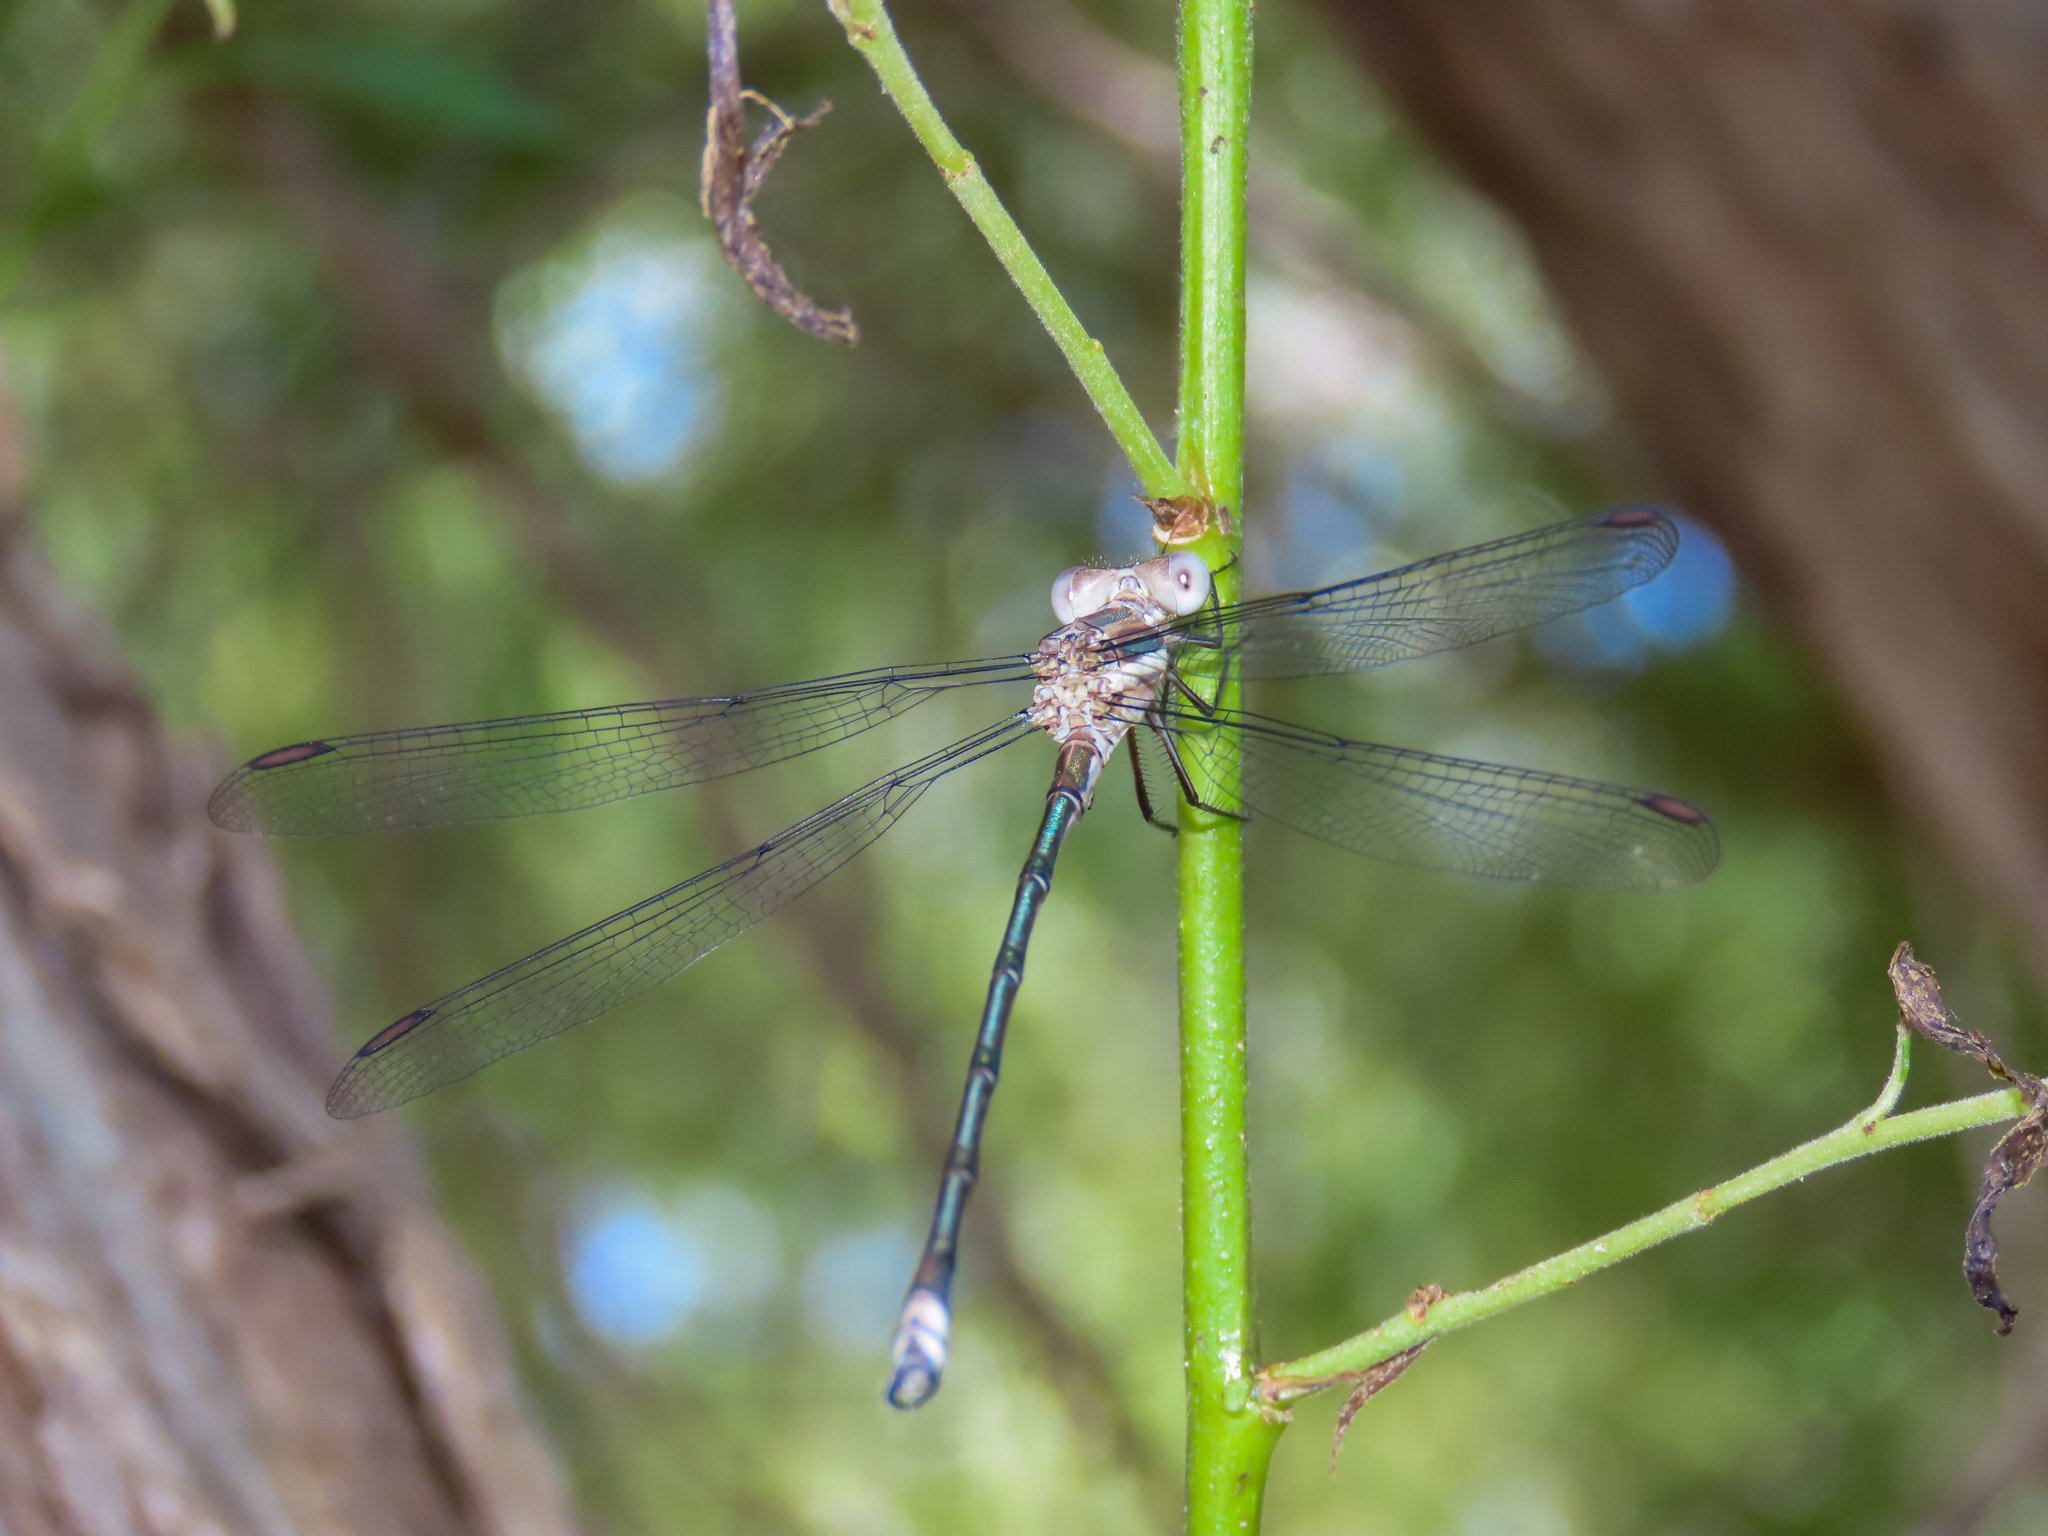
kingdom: Animalia
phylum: Arthropoda
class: Insecta
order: Odonata
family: Lestidae
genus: Archilestes
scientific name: Archilestes grandis
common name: Great spreadwing
